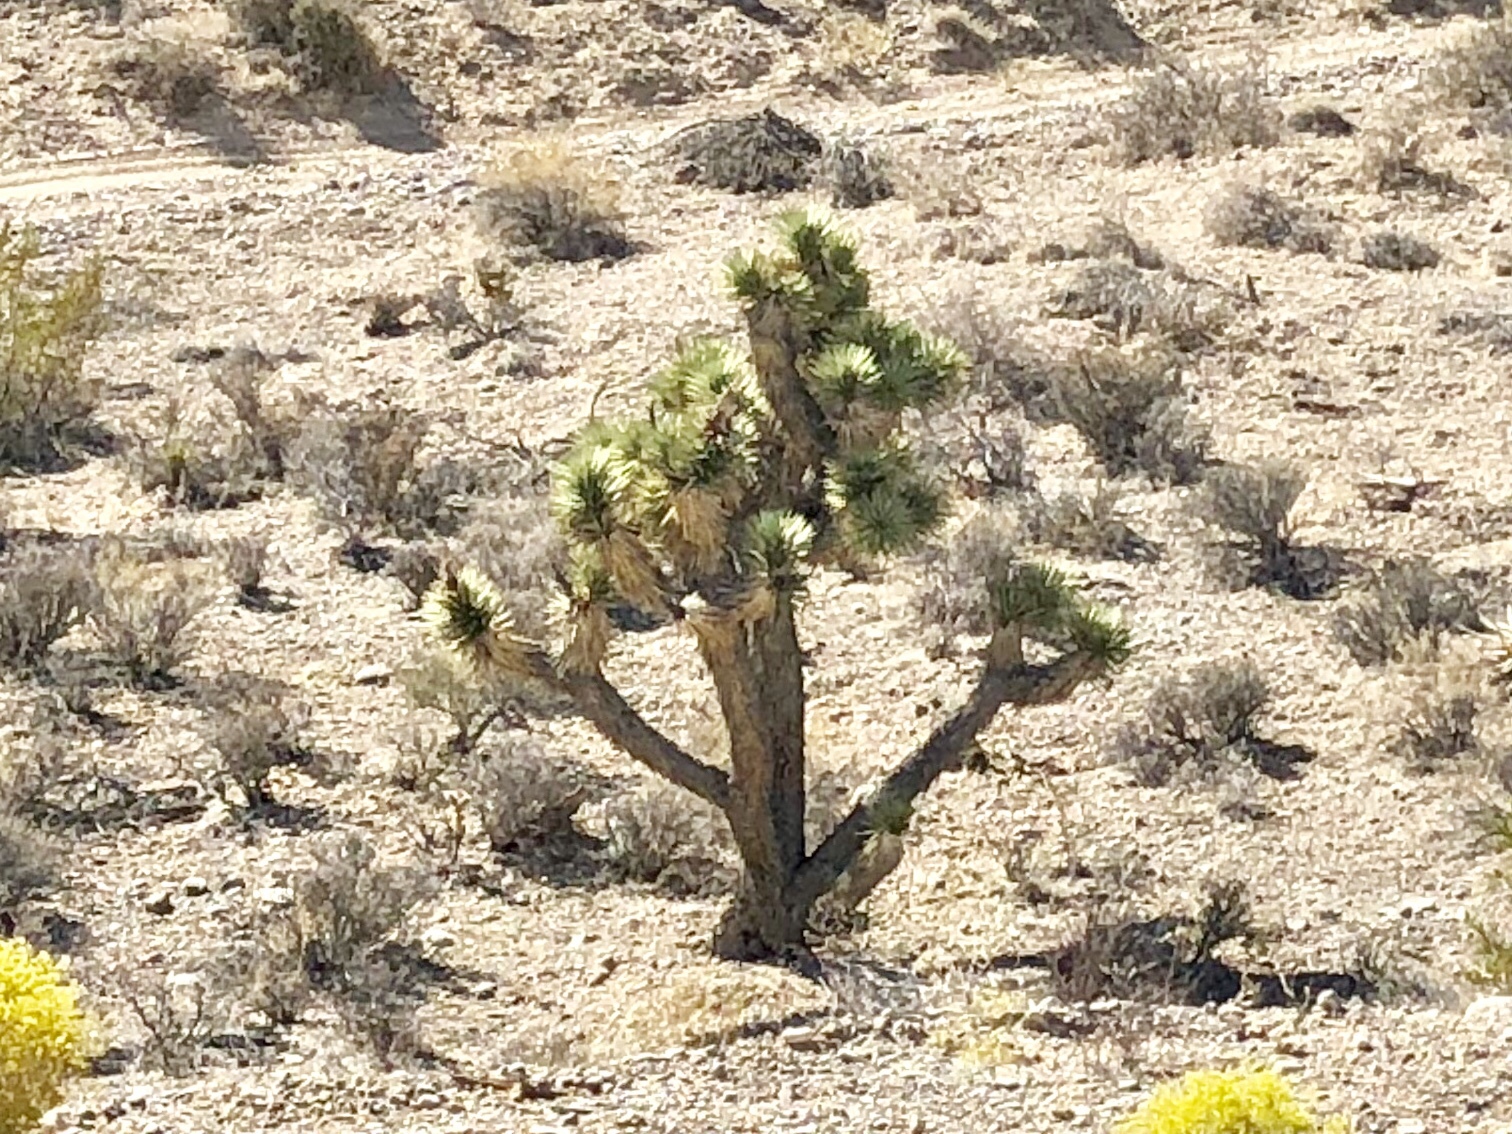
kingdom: Plantae
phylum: Tracheophyta
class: Liliopsida
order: Asparagales
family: Asparagaceae
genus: Yucca
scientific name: Yucca brevifolia
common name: Joshua tree
